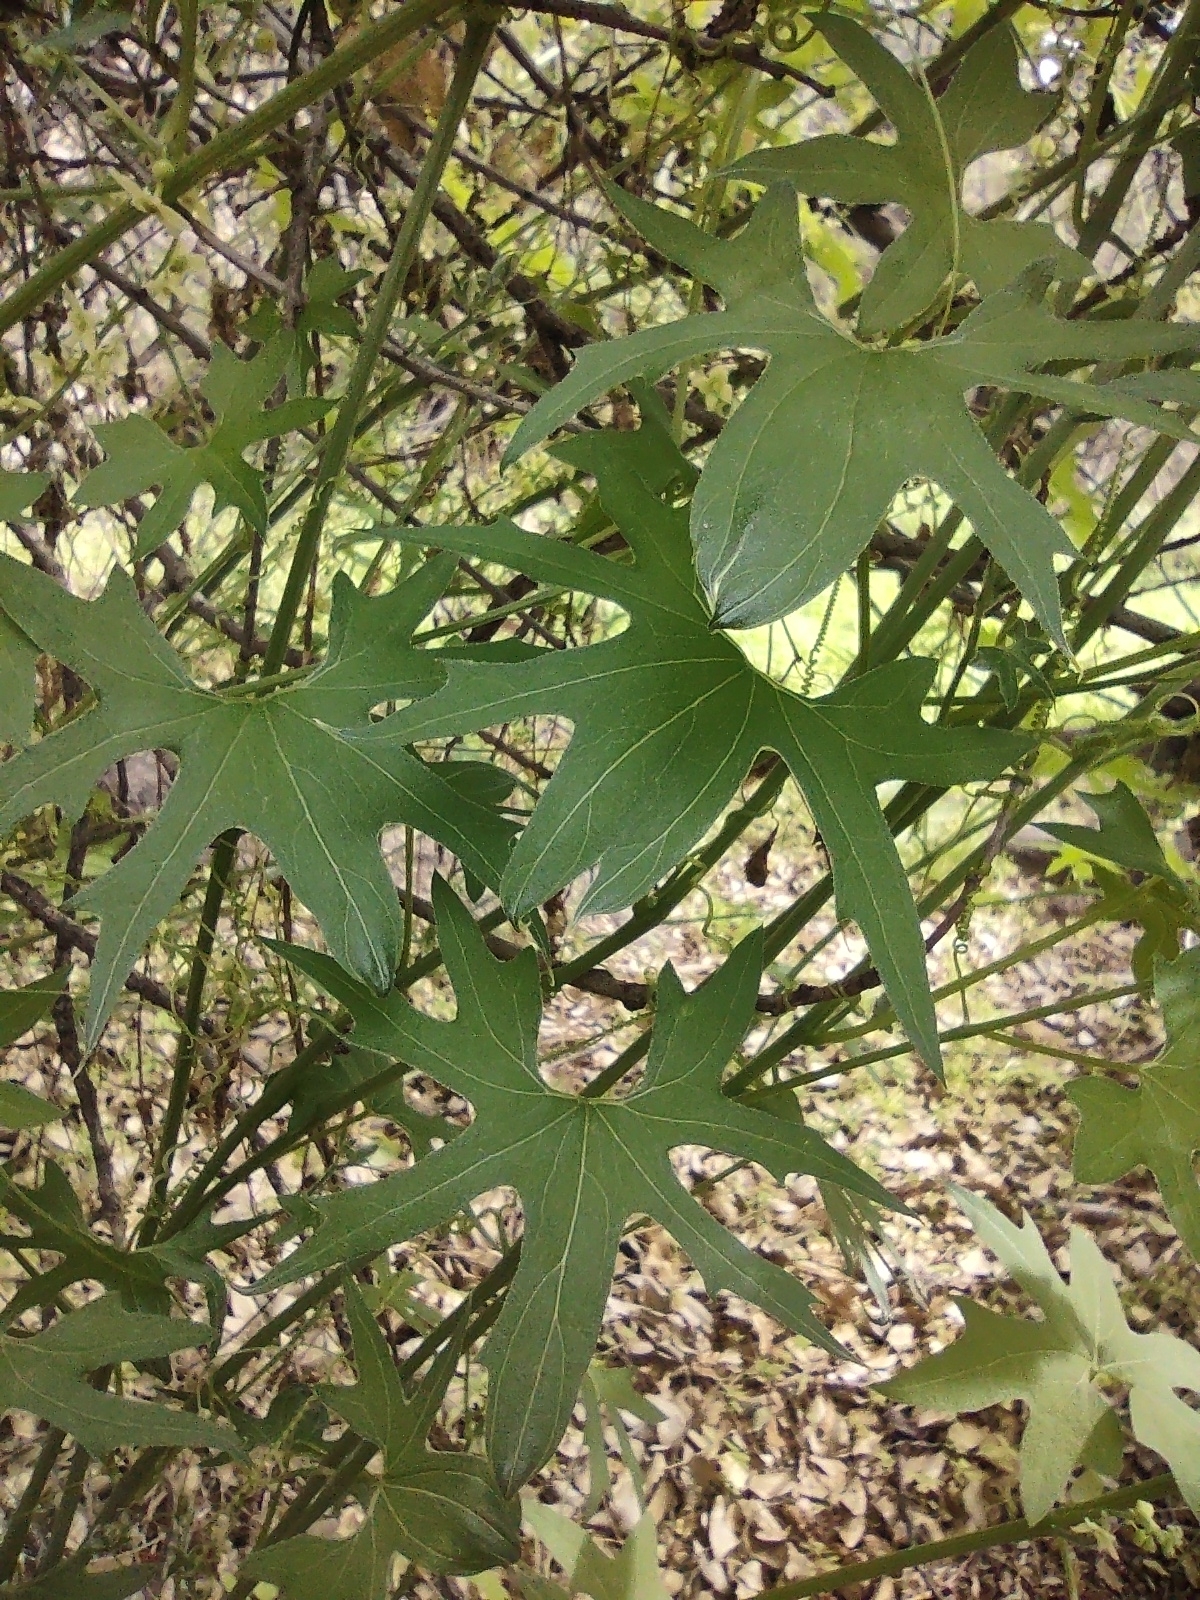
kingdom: Plantae
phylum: Tracheophyta
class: Magnoliopsida
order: Cucurbitales
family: Cucurbitaceae
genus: Marah
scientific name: Marah gilensis
